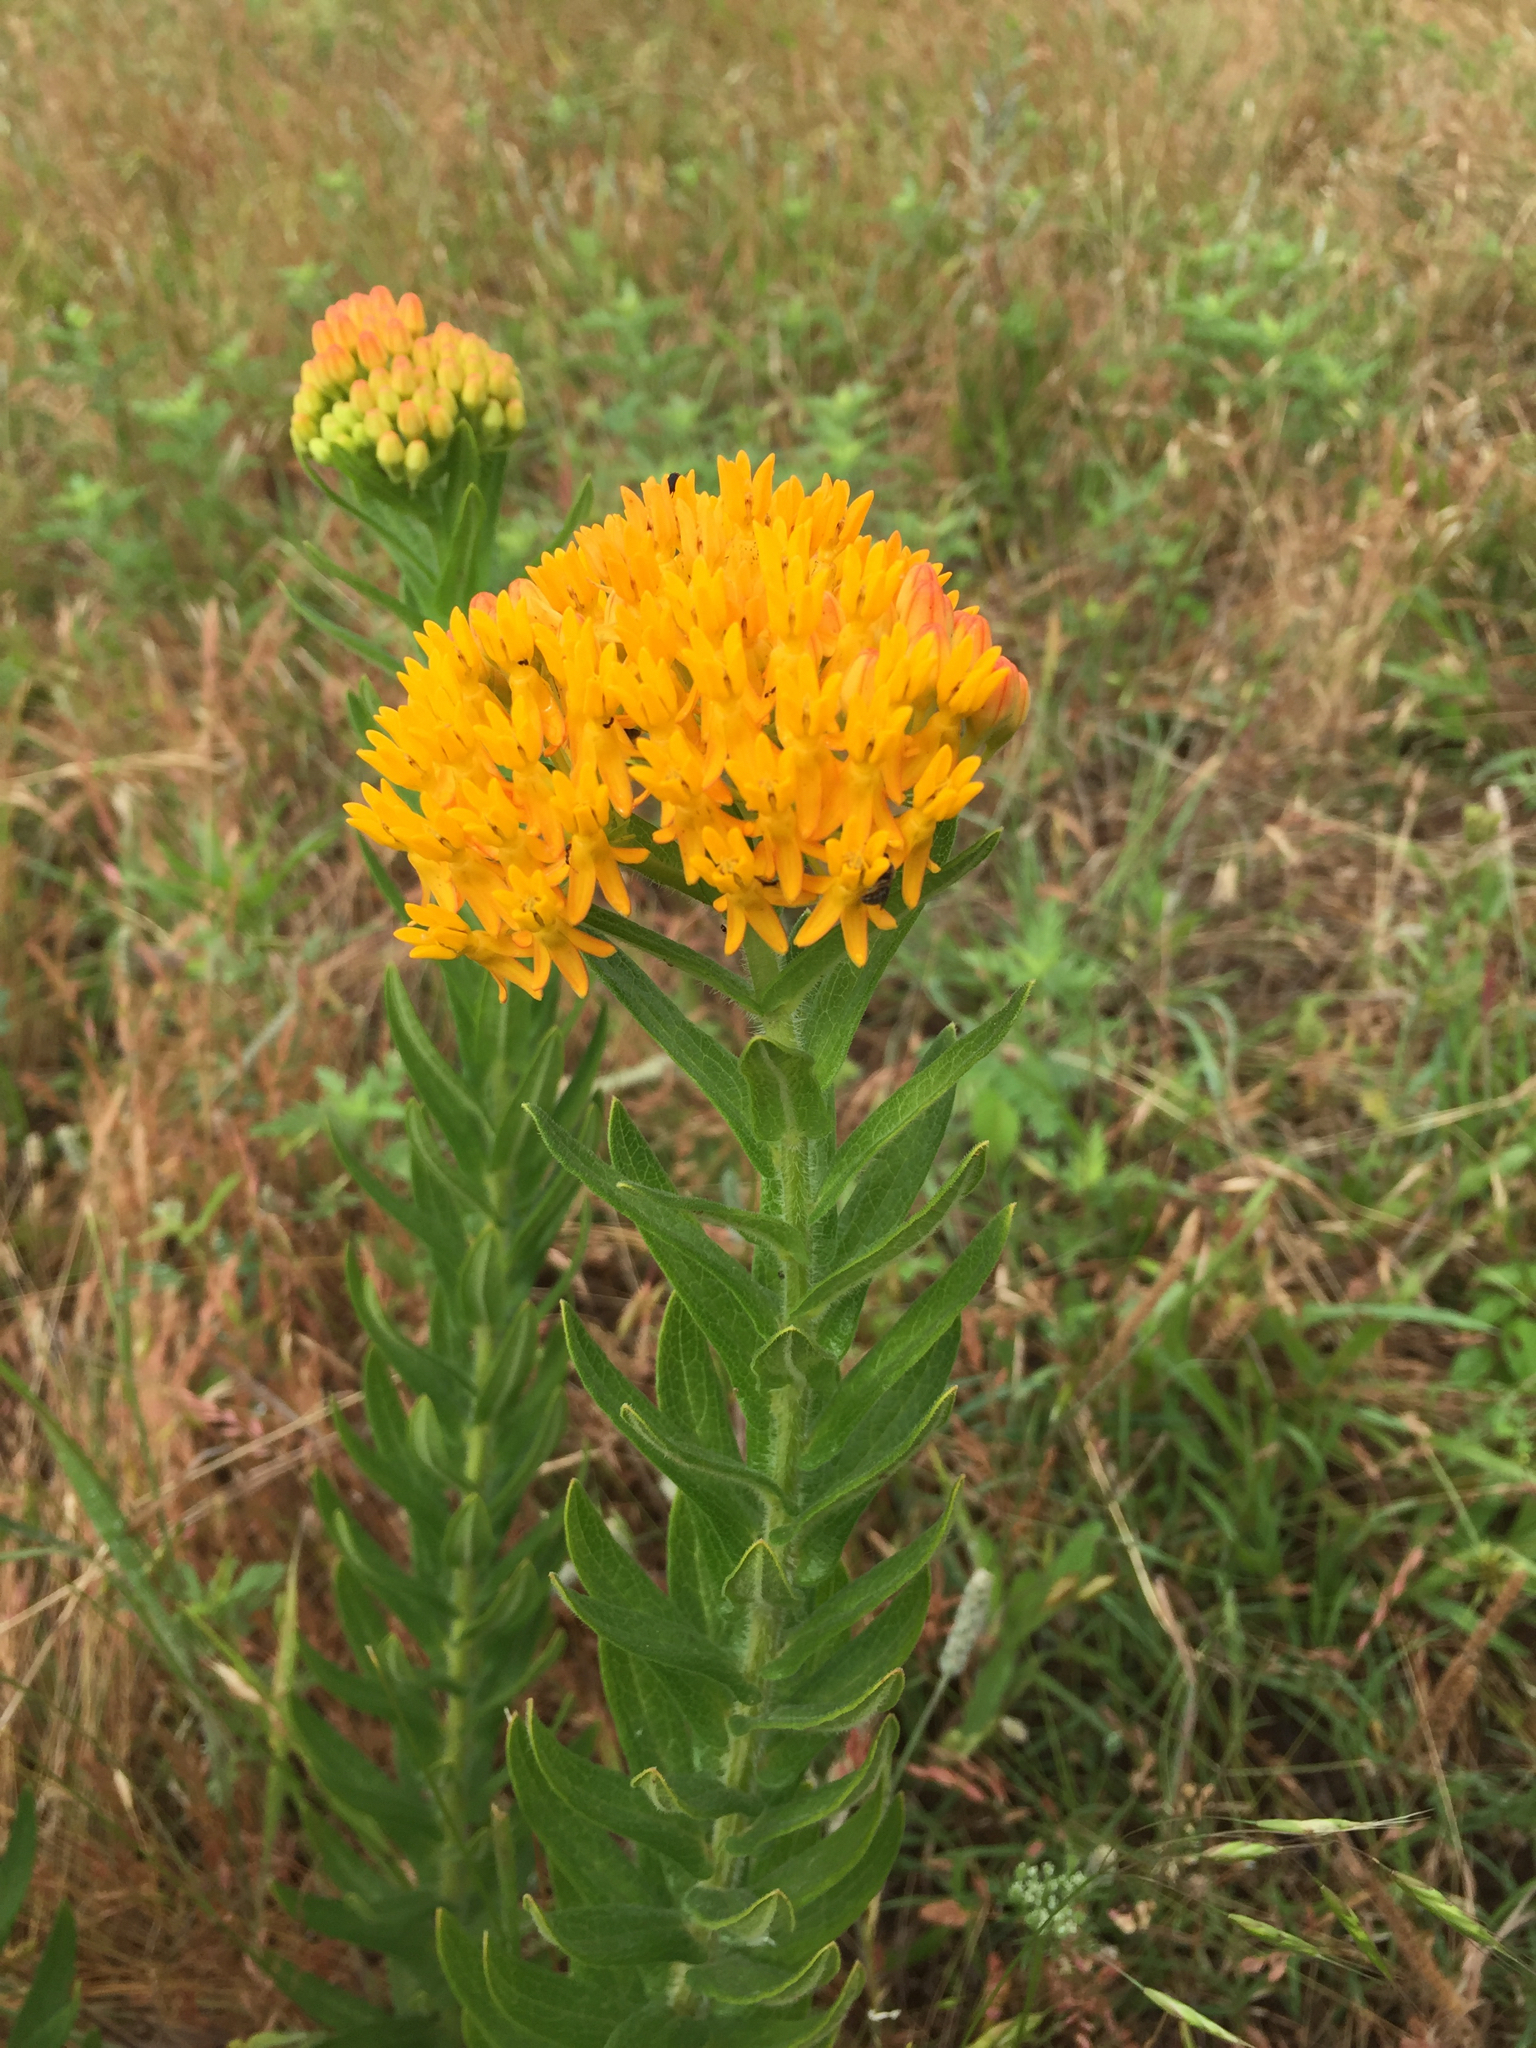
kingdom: Plantae
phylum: Tracheophyta
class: Magnoliopsida
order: Gentianales
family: Apocynaceae
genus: Asclepias
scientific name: Asclepias tuberosa
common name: Butterfly milkweed
